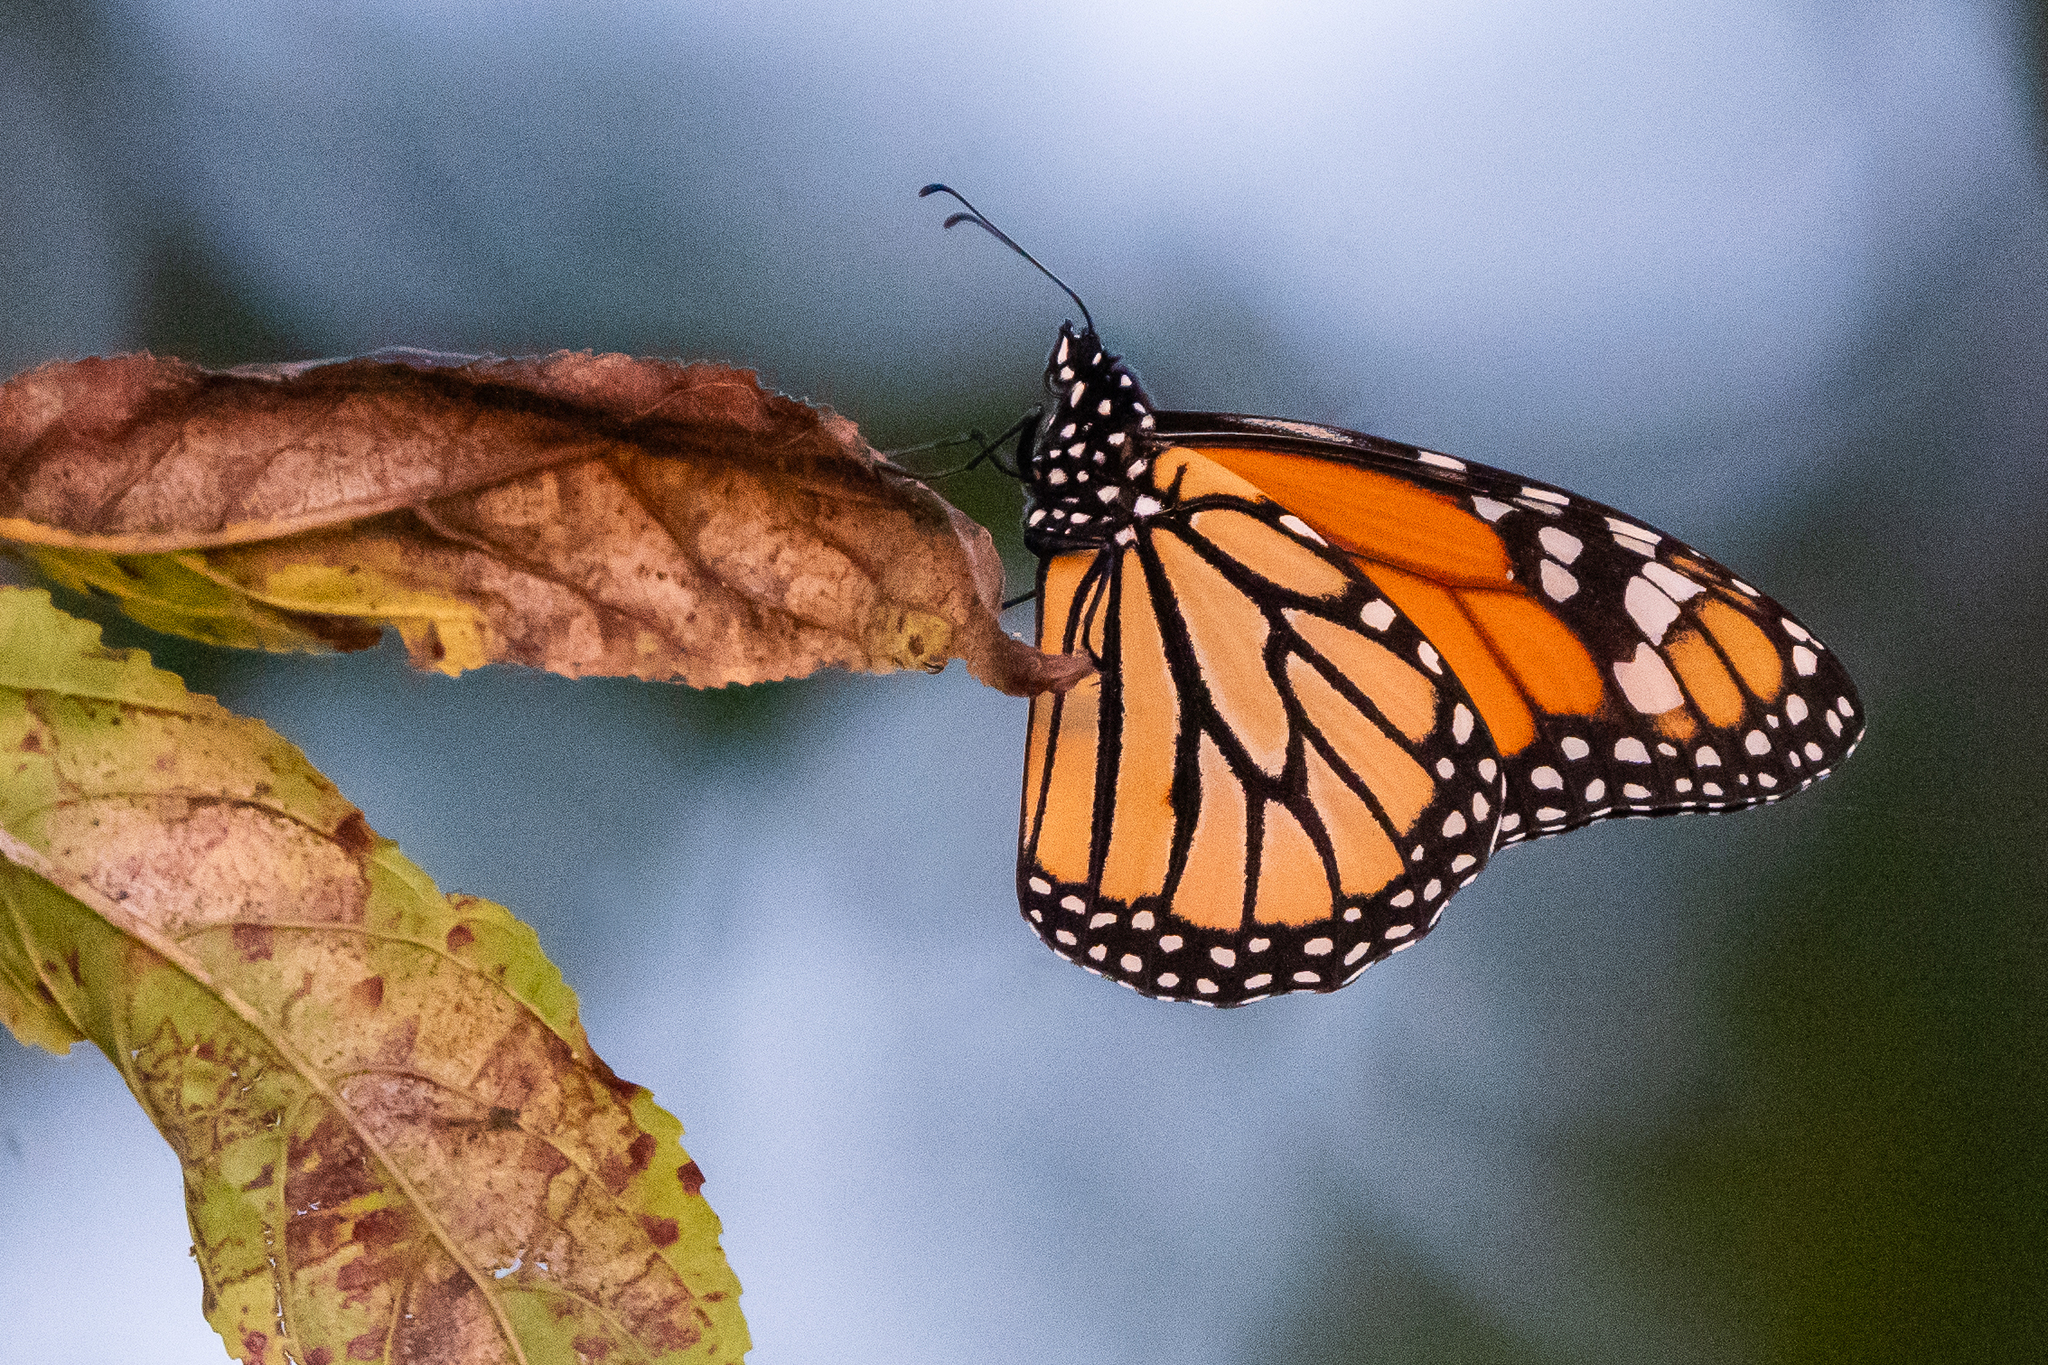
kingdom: Animalia
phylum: Arthropoda
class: Insecta
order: Lepidoptera
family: Nymphalidae
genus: Danaus
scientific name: Danaus plexippus
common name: Monarch
